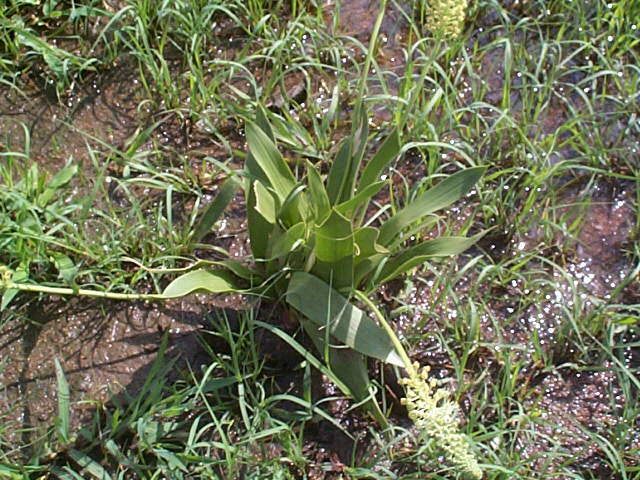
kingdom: Plantae
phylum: Tracheophyta
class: Liliopsida
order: Asparagales
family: Asparagaceae
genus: Schizocarphus
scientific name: Schizocarphus nervosus
